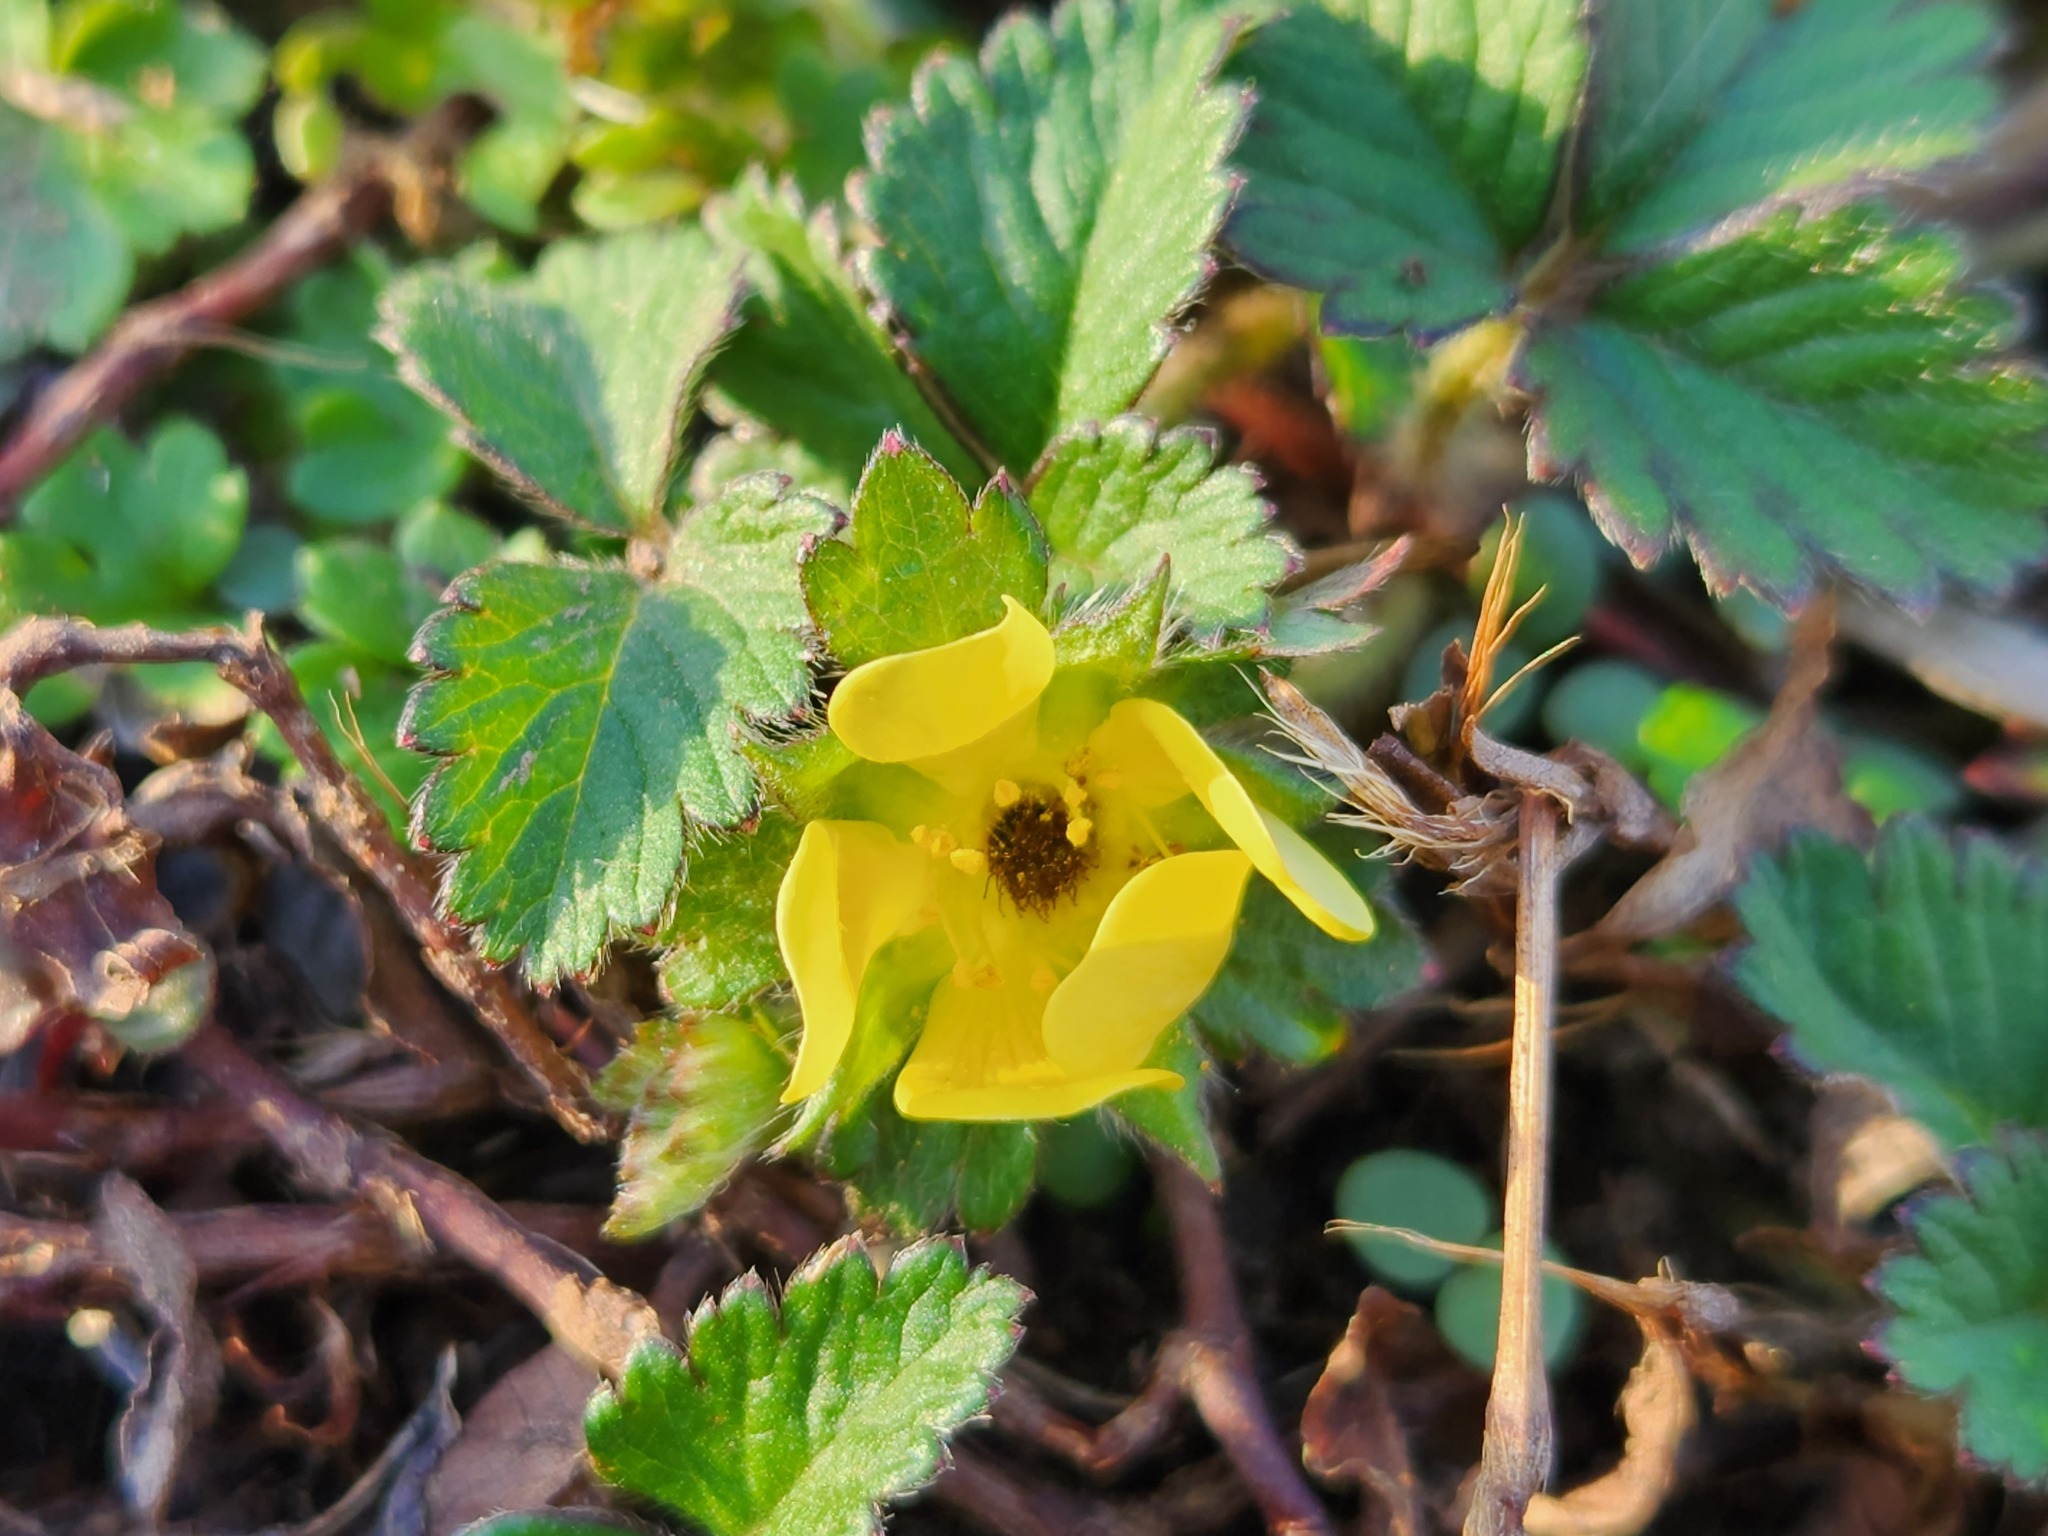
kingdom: Plantae
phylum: Tracheophyta
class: Magnoliopsida
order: Rosales
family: Rosaceae
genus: Potentilla
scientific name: Potentilla indica
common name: Yellow-flowered strawberry
